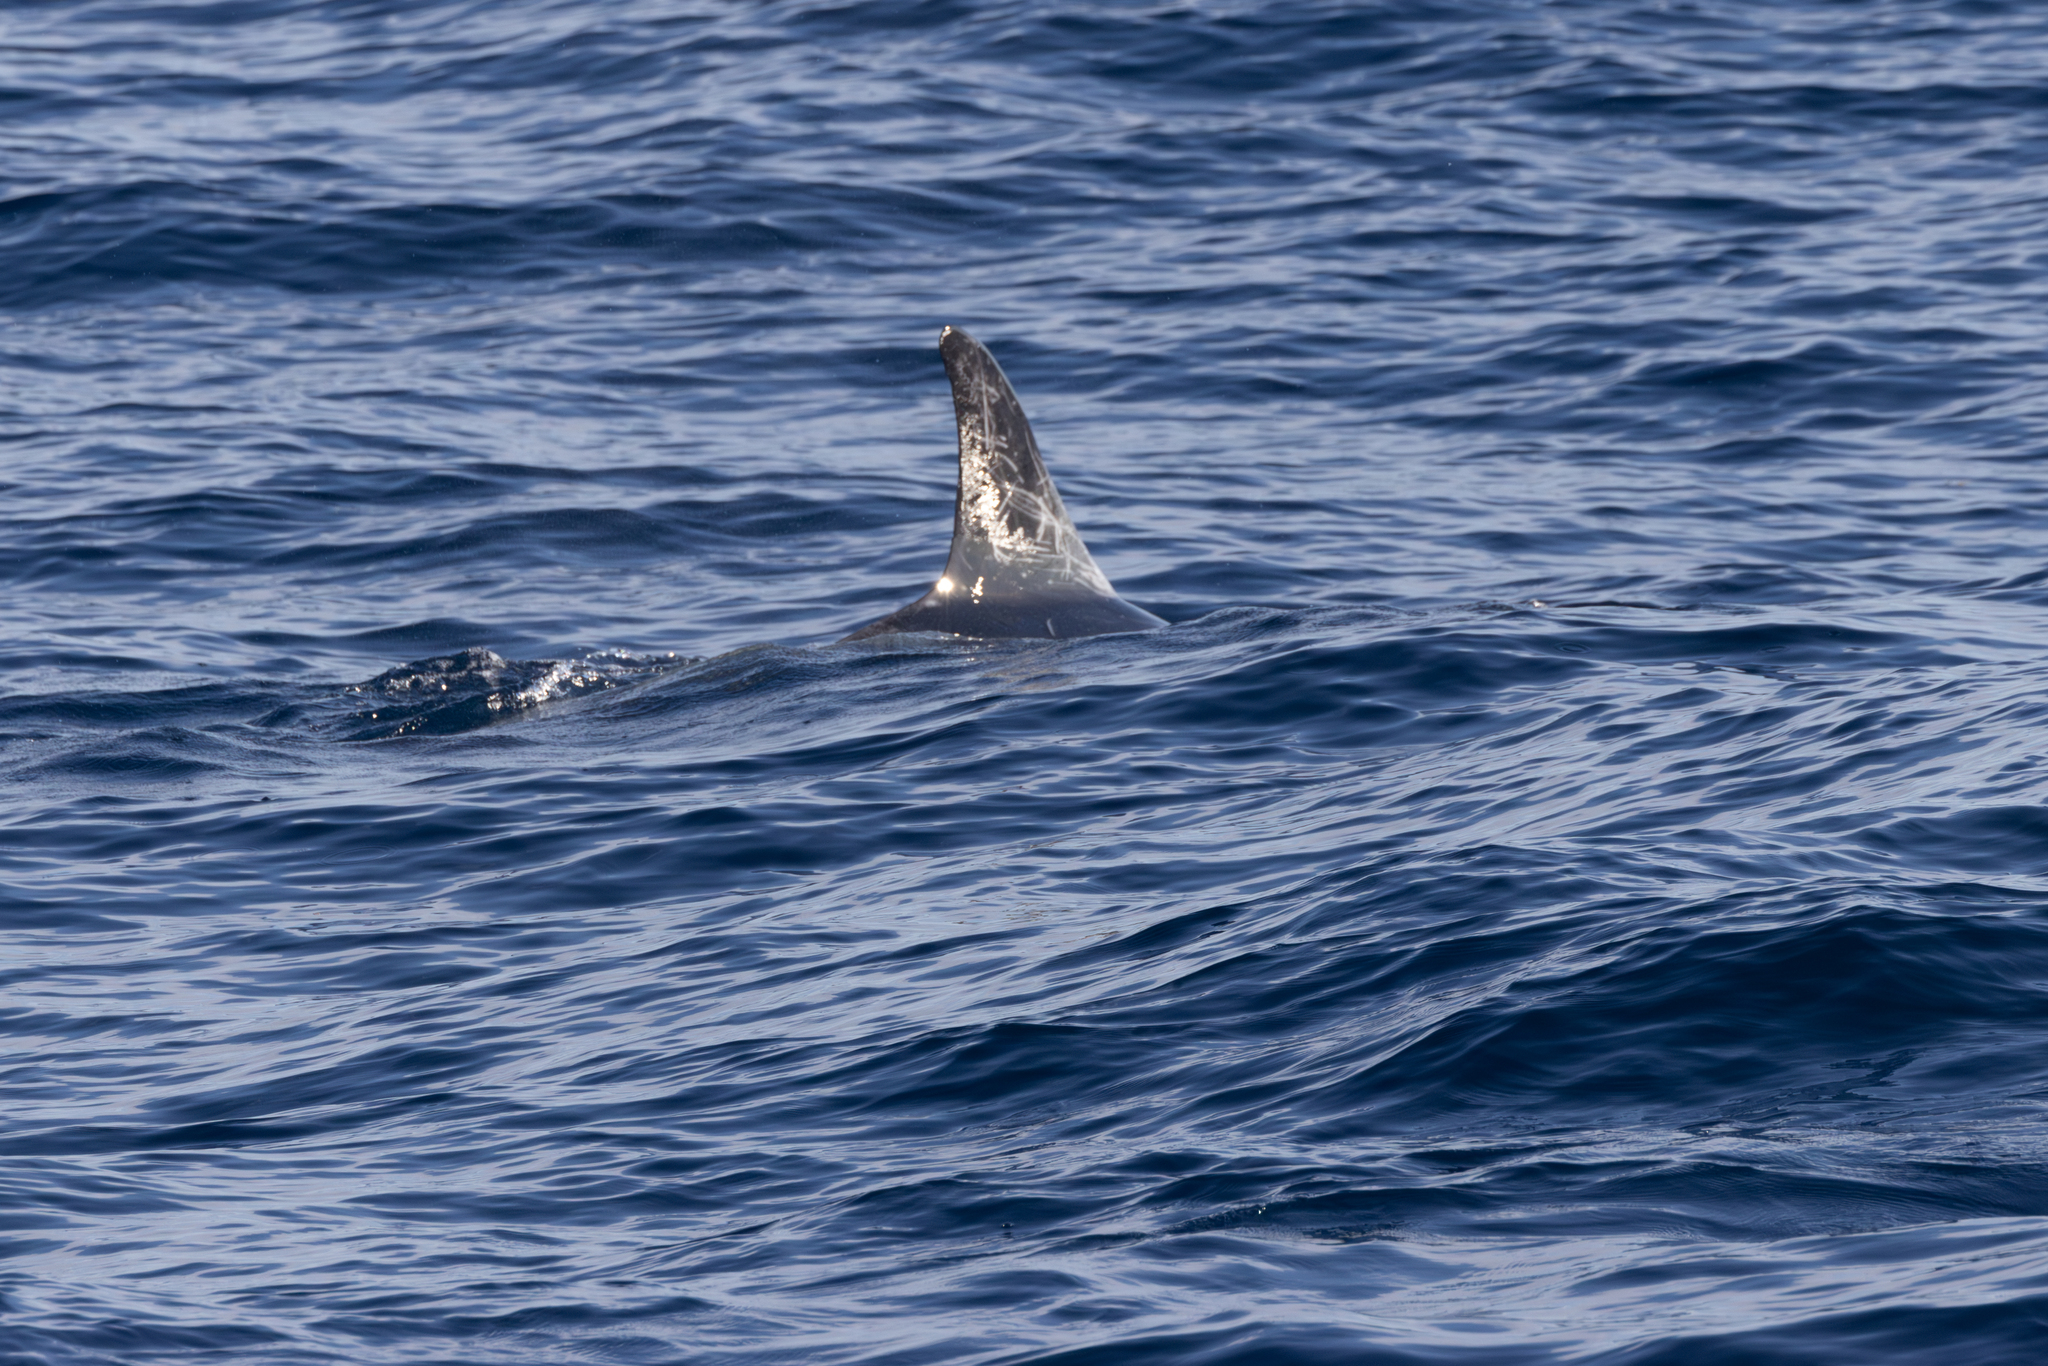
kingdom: Animalia
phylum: Chordata
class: Mammalia
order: Cetacea
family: Delphinidae
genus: Grampus
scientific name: Grampus griseus
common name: Risso's dolphin
